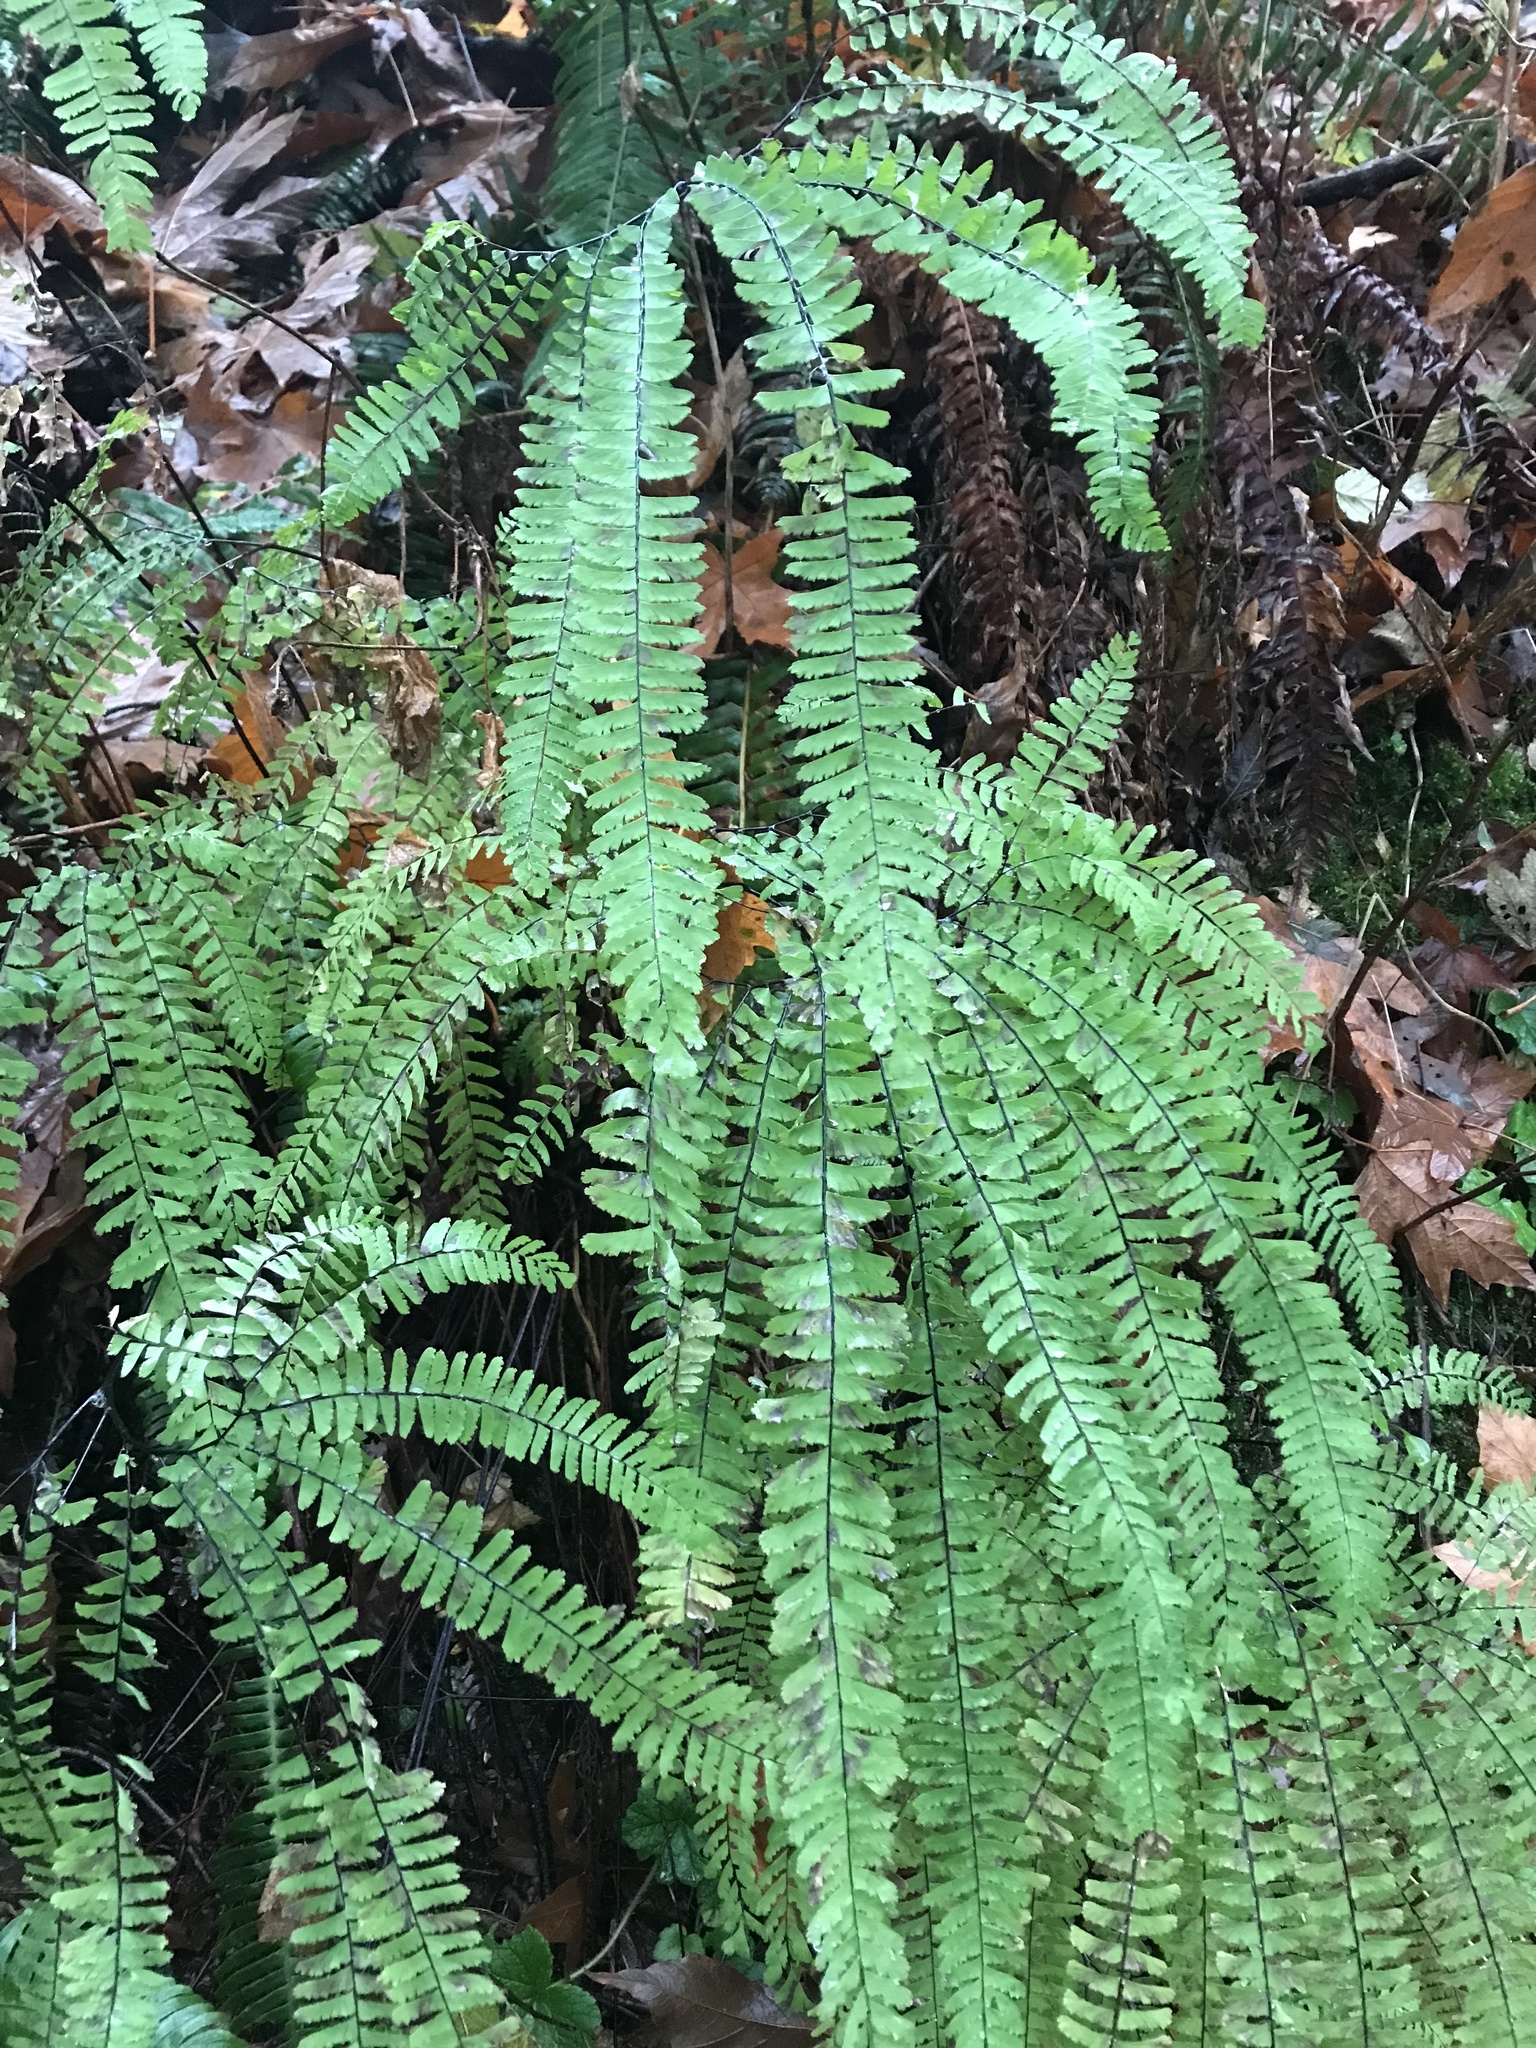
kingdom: Plantae
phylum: Tracheophyta
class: Polypodiopsida
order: Polypodiales
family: Pteridaceae
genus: Adiantum
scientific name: Adiantum aleuticum
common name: Aleutian maidenhair fern
